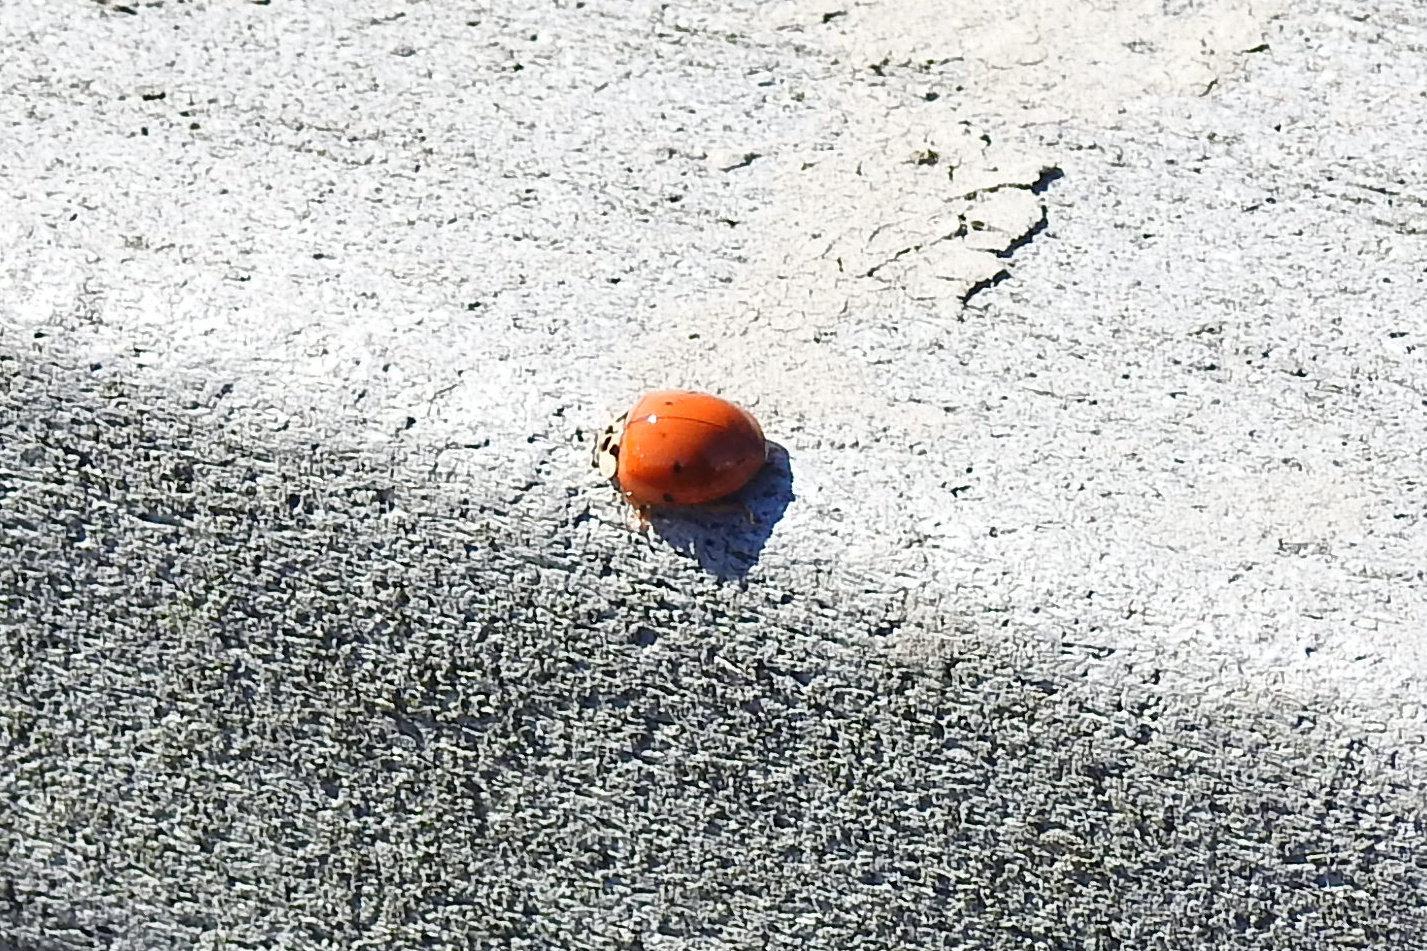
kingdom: Animalia
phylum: Arthropoda
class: Insecta
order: Coleoptera
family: Coccinellidae
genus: Harmonia
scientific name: Harmonia axyridis
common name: Harlequin ladybird
